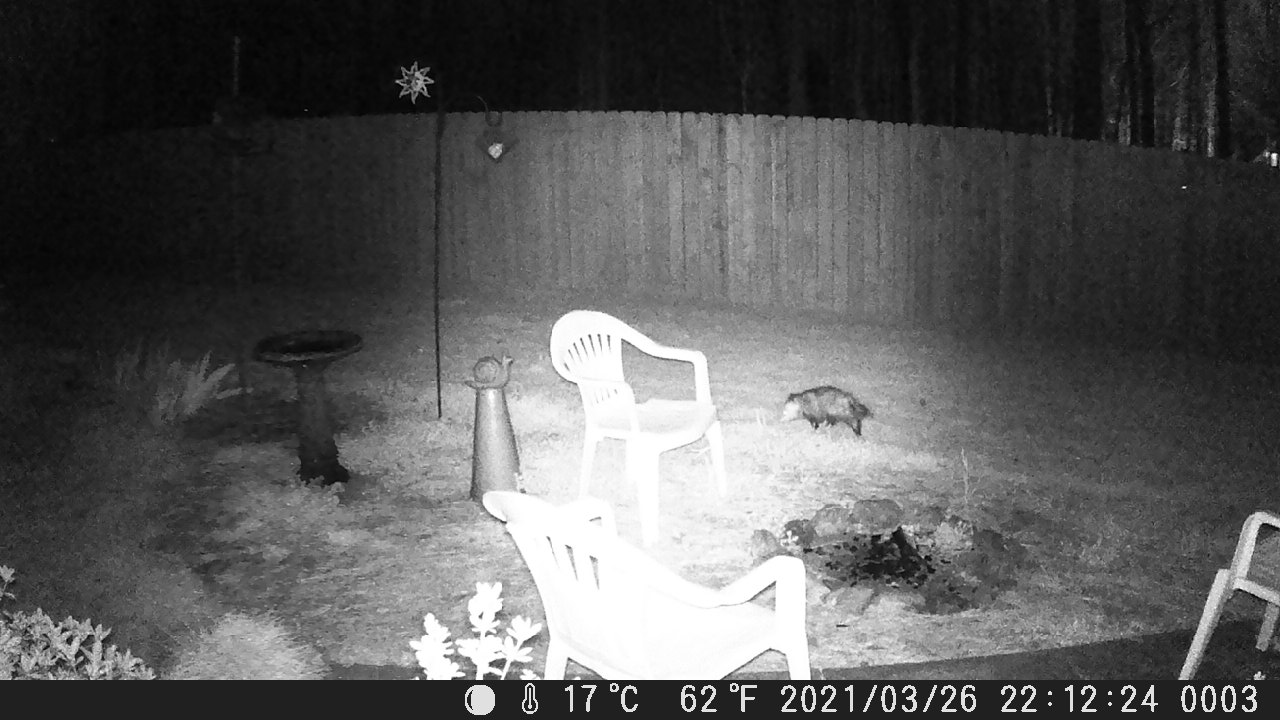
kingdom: Animalia
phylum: Chordata
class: Mammalia
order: Didelphimorphia
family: Didelphidae
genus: Didelphis
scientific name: Didelphis virginiana
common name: Virginia opossum
